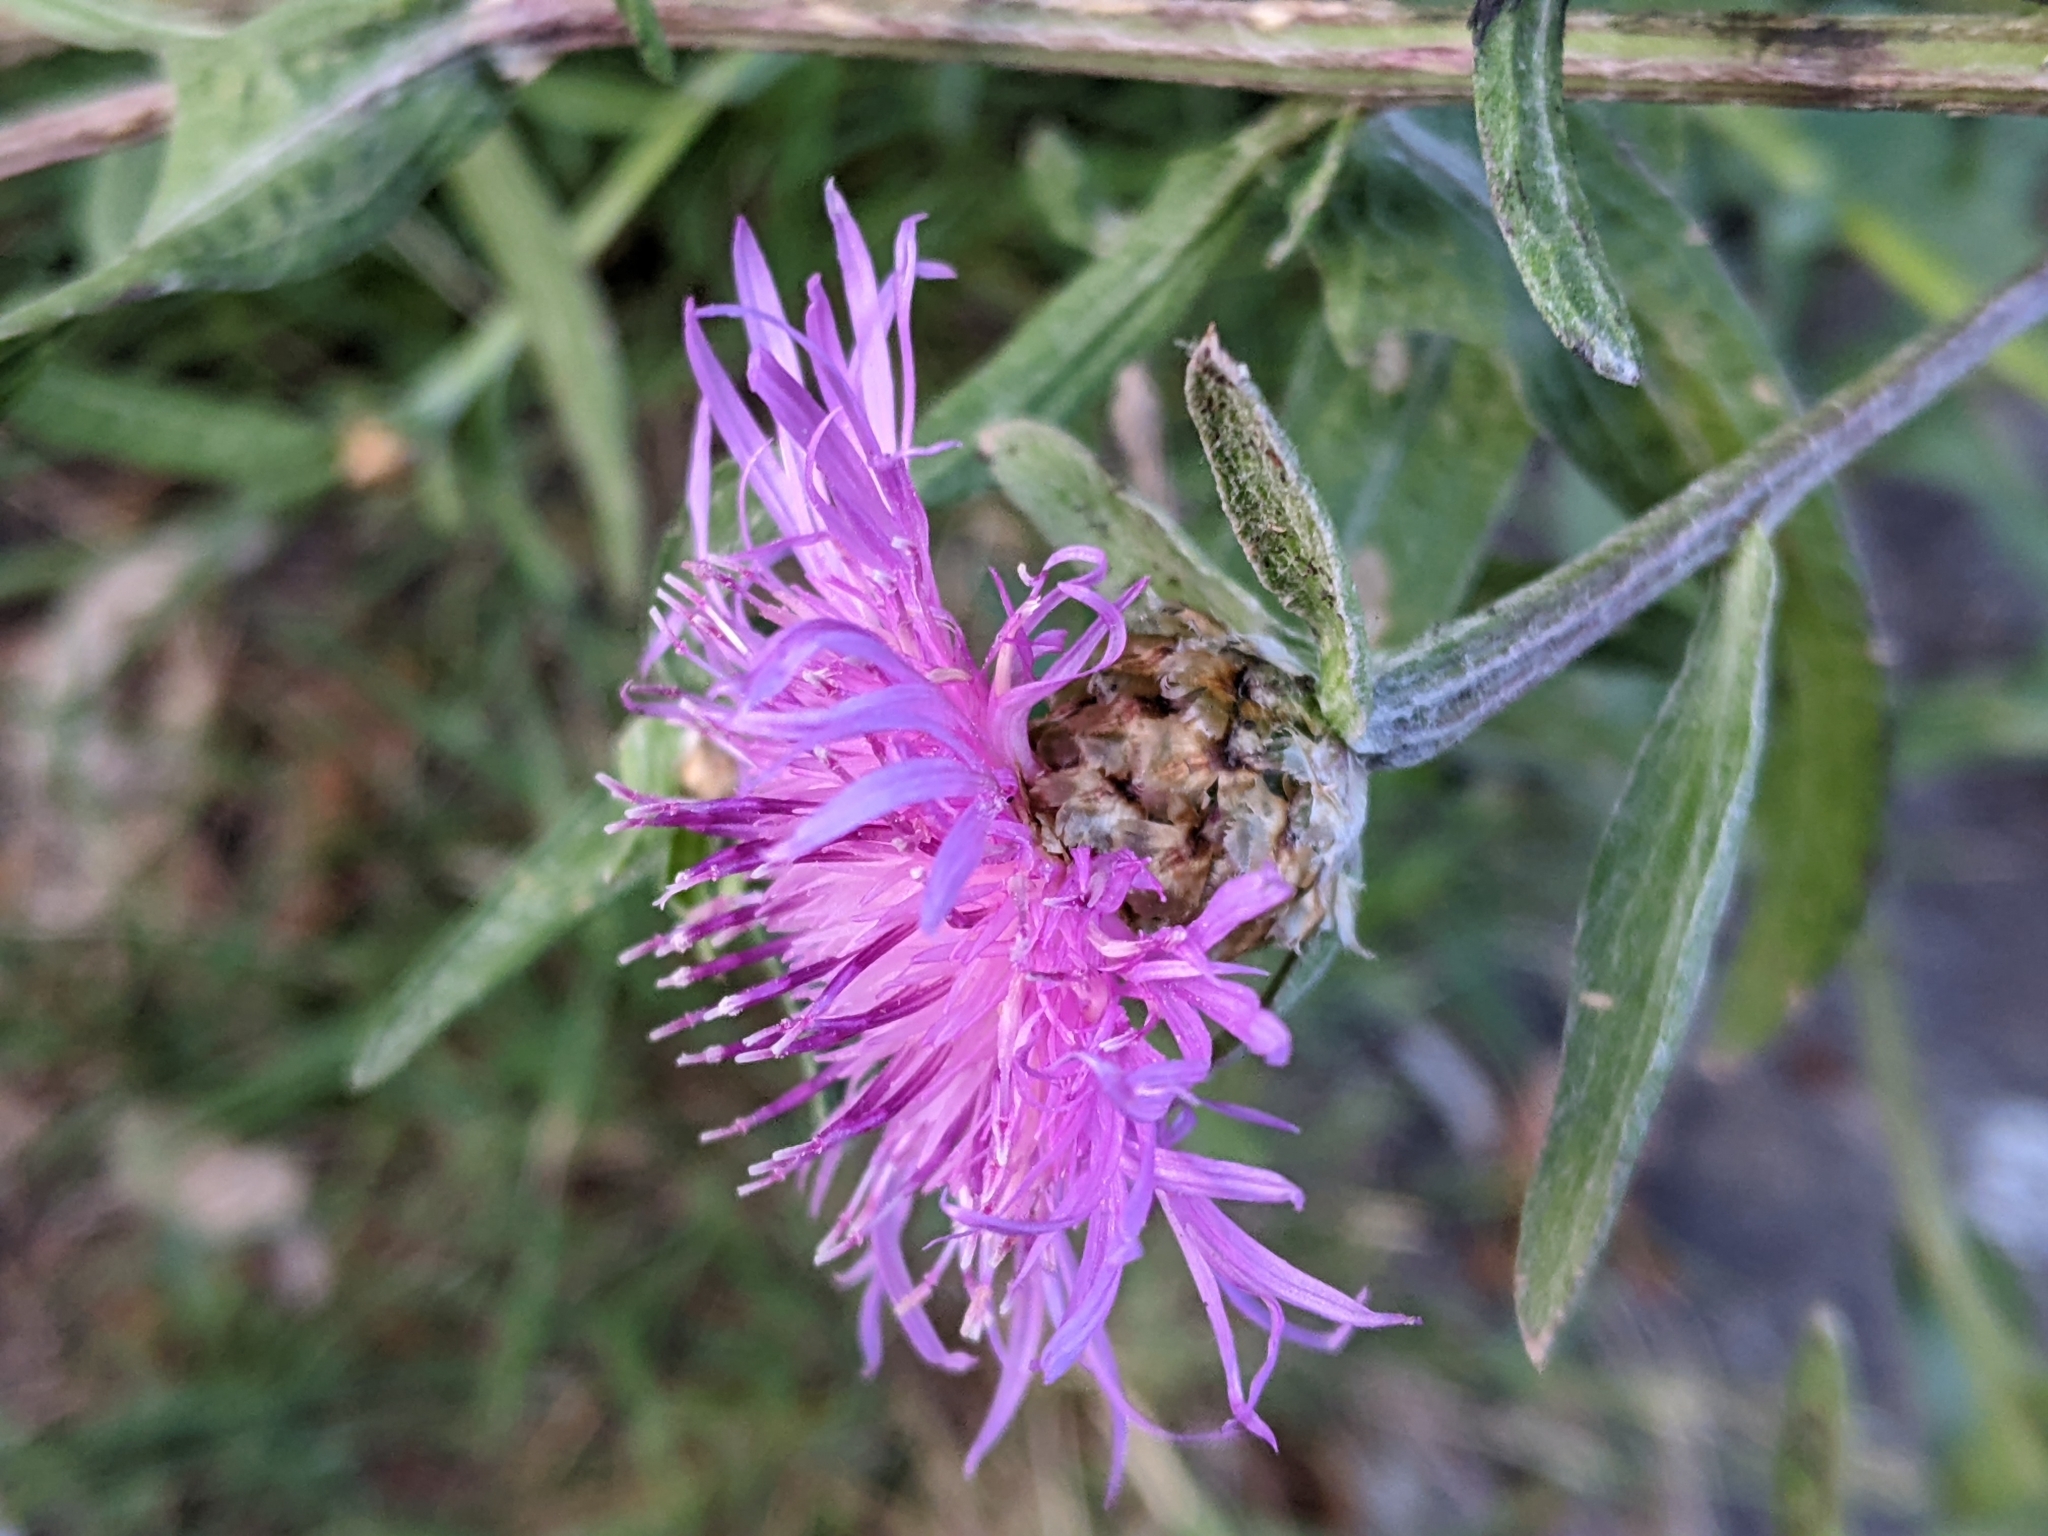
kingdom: Plantae
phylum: Tracheophyta
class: Magnoliopsida
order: Asterales
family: Asteraceae
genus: Centaurea
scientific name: Centaurea jacea
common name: Brown knapweed
